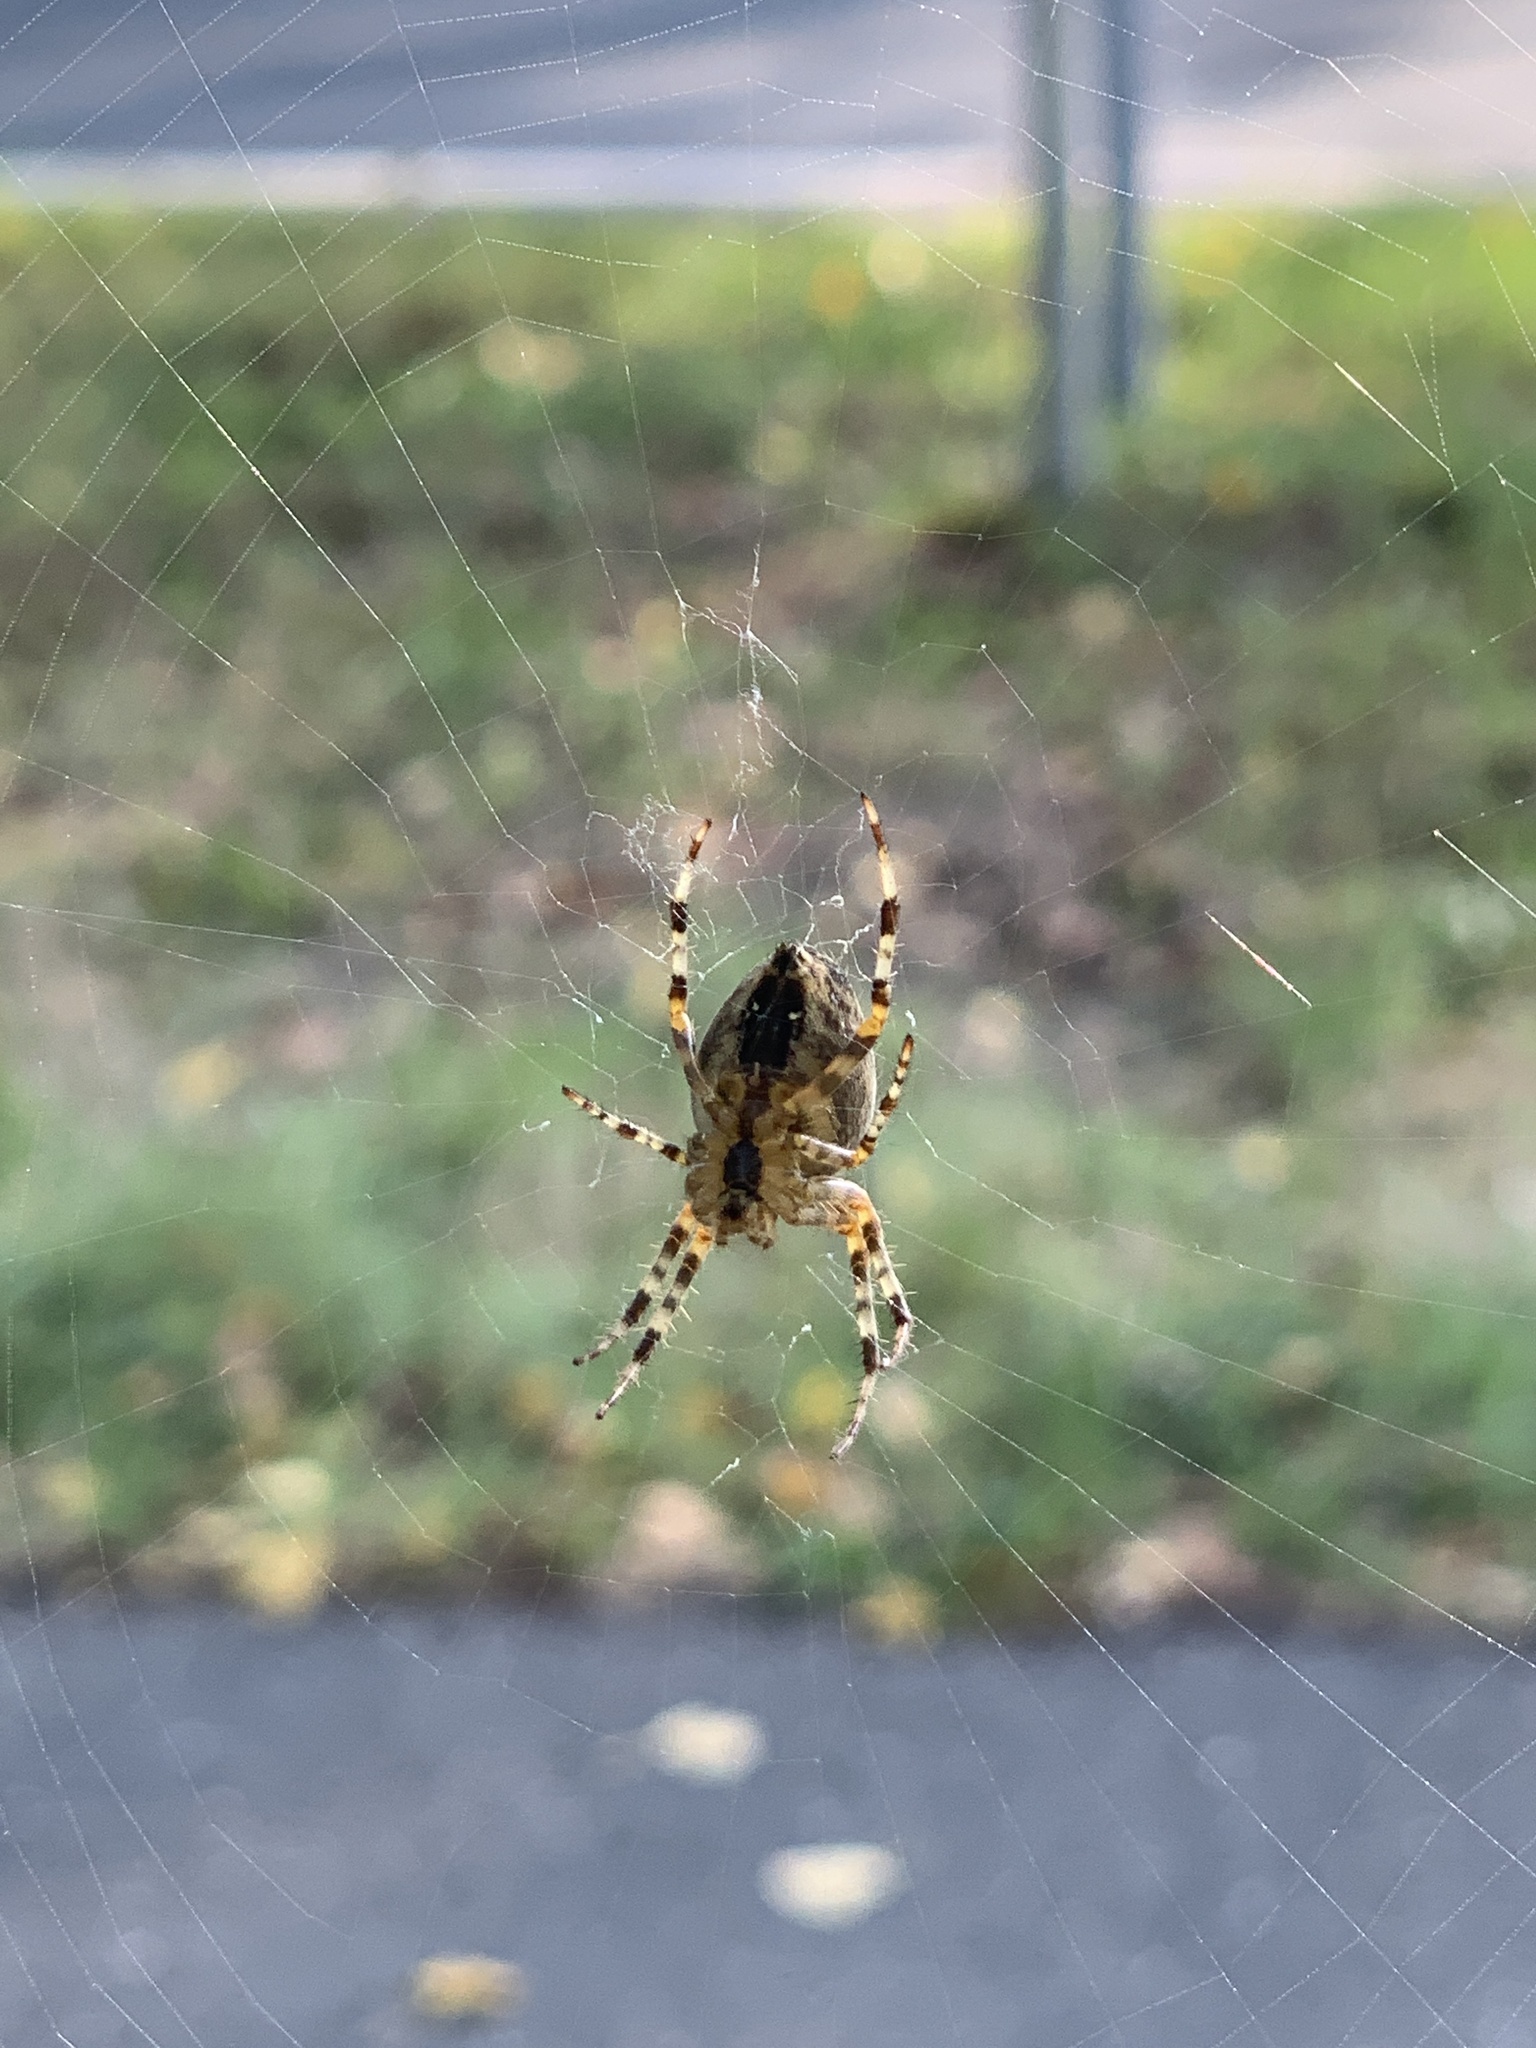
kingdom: Animalia
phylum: Arthropoda
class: Arachnida
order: Araneae
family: Araneidae
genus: Araneus
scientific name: Araneus diadematus
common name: Cross orbweaver
